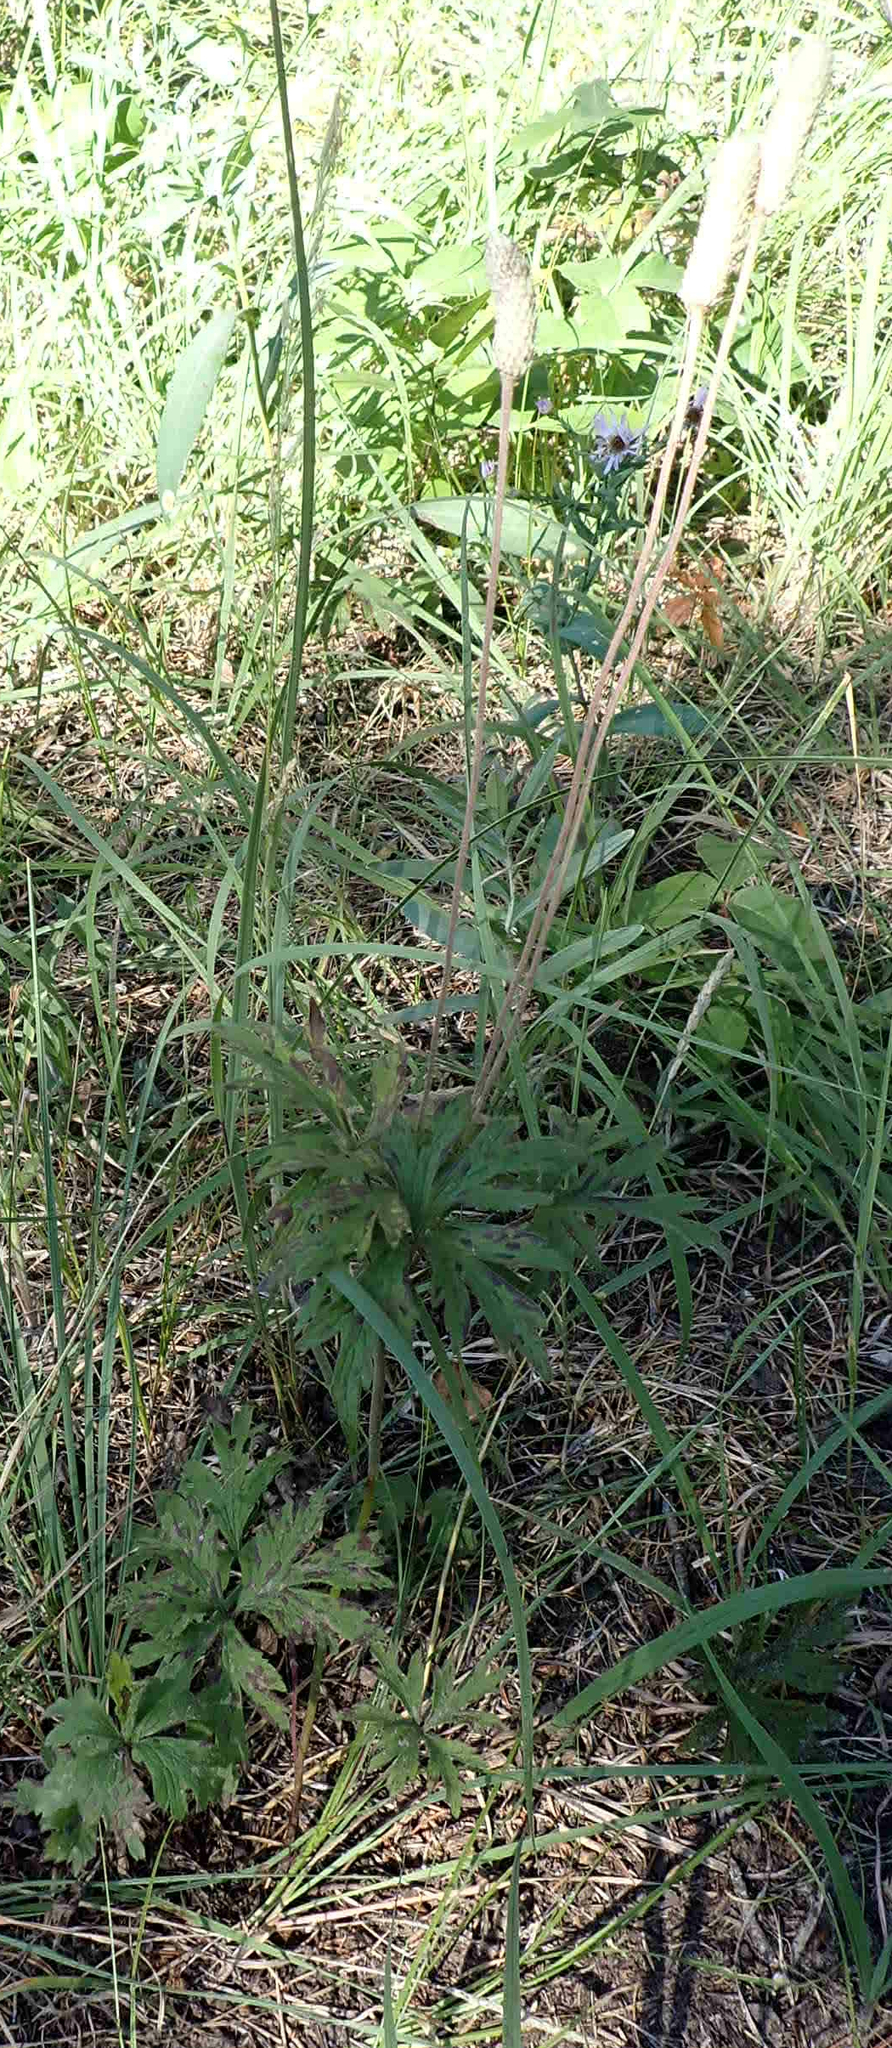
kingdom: Plantae
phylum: Tracheophyta
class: Magnoliopsida
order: Ranunculales
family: Ranunculaceae
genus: Anemone
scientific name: Anemone cylindrica
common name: Candle anemone
